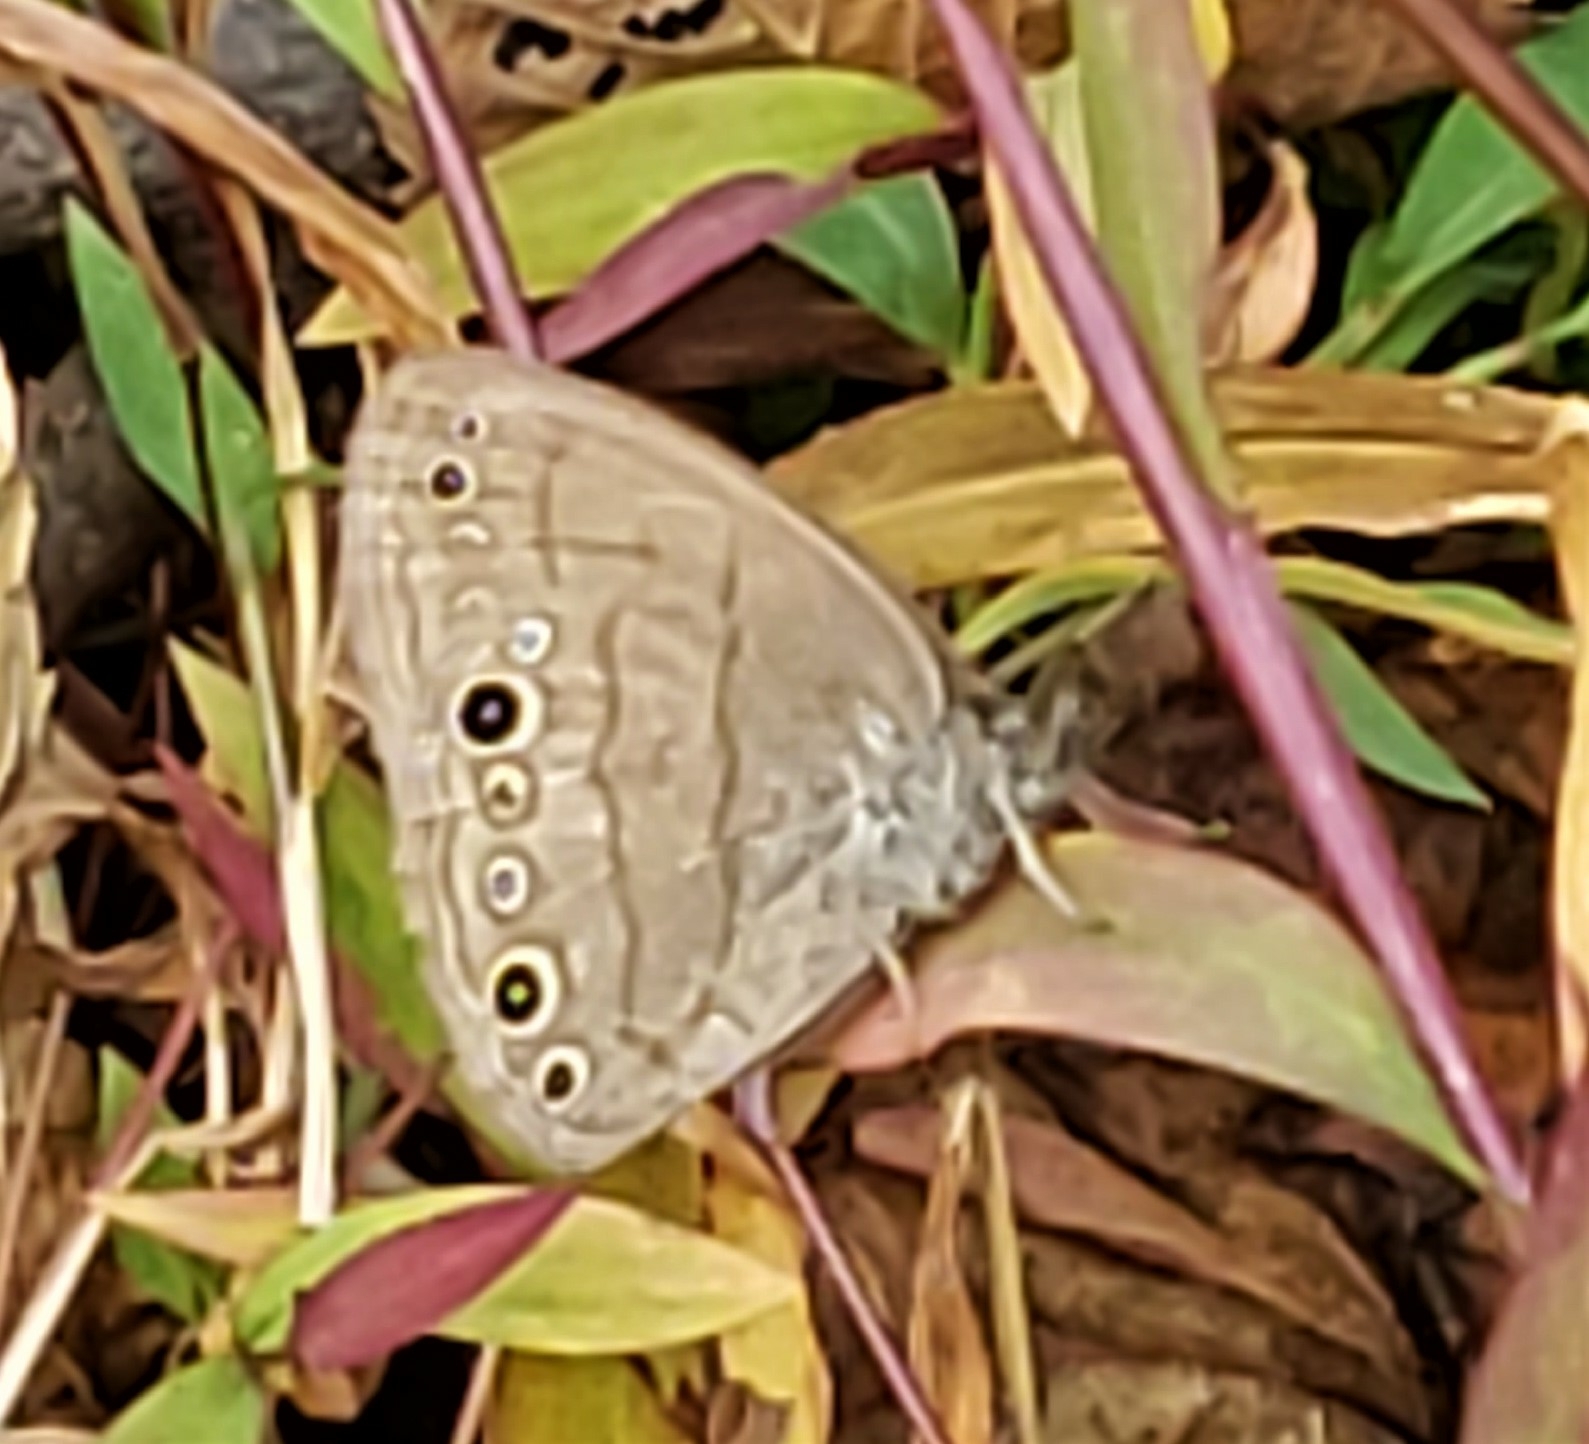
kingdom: Animalia
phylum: Arthropoda
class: Insecta
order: Lepidoptera
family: Nymphalidae
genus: Hermeuptychia
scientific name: Hermeuptychia hermes
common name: Hermes satyr
